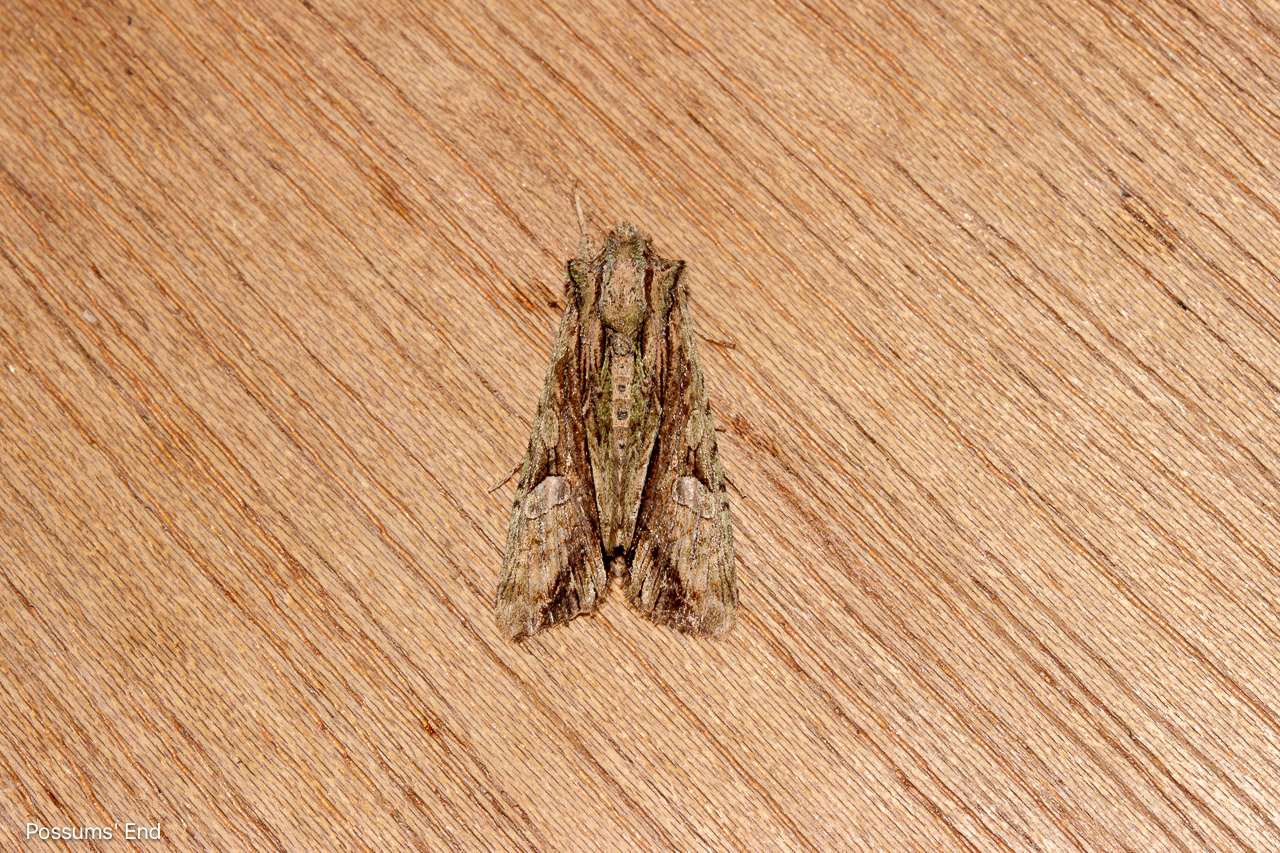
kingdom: Animalia
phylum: Arthropoda
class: Insecta
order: Lepidoptera
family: Noctuidae
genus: Meterana
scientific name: Meterana decorata
